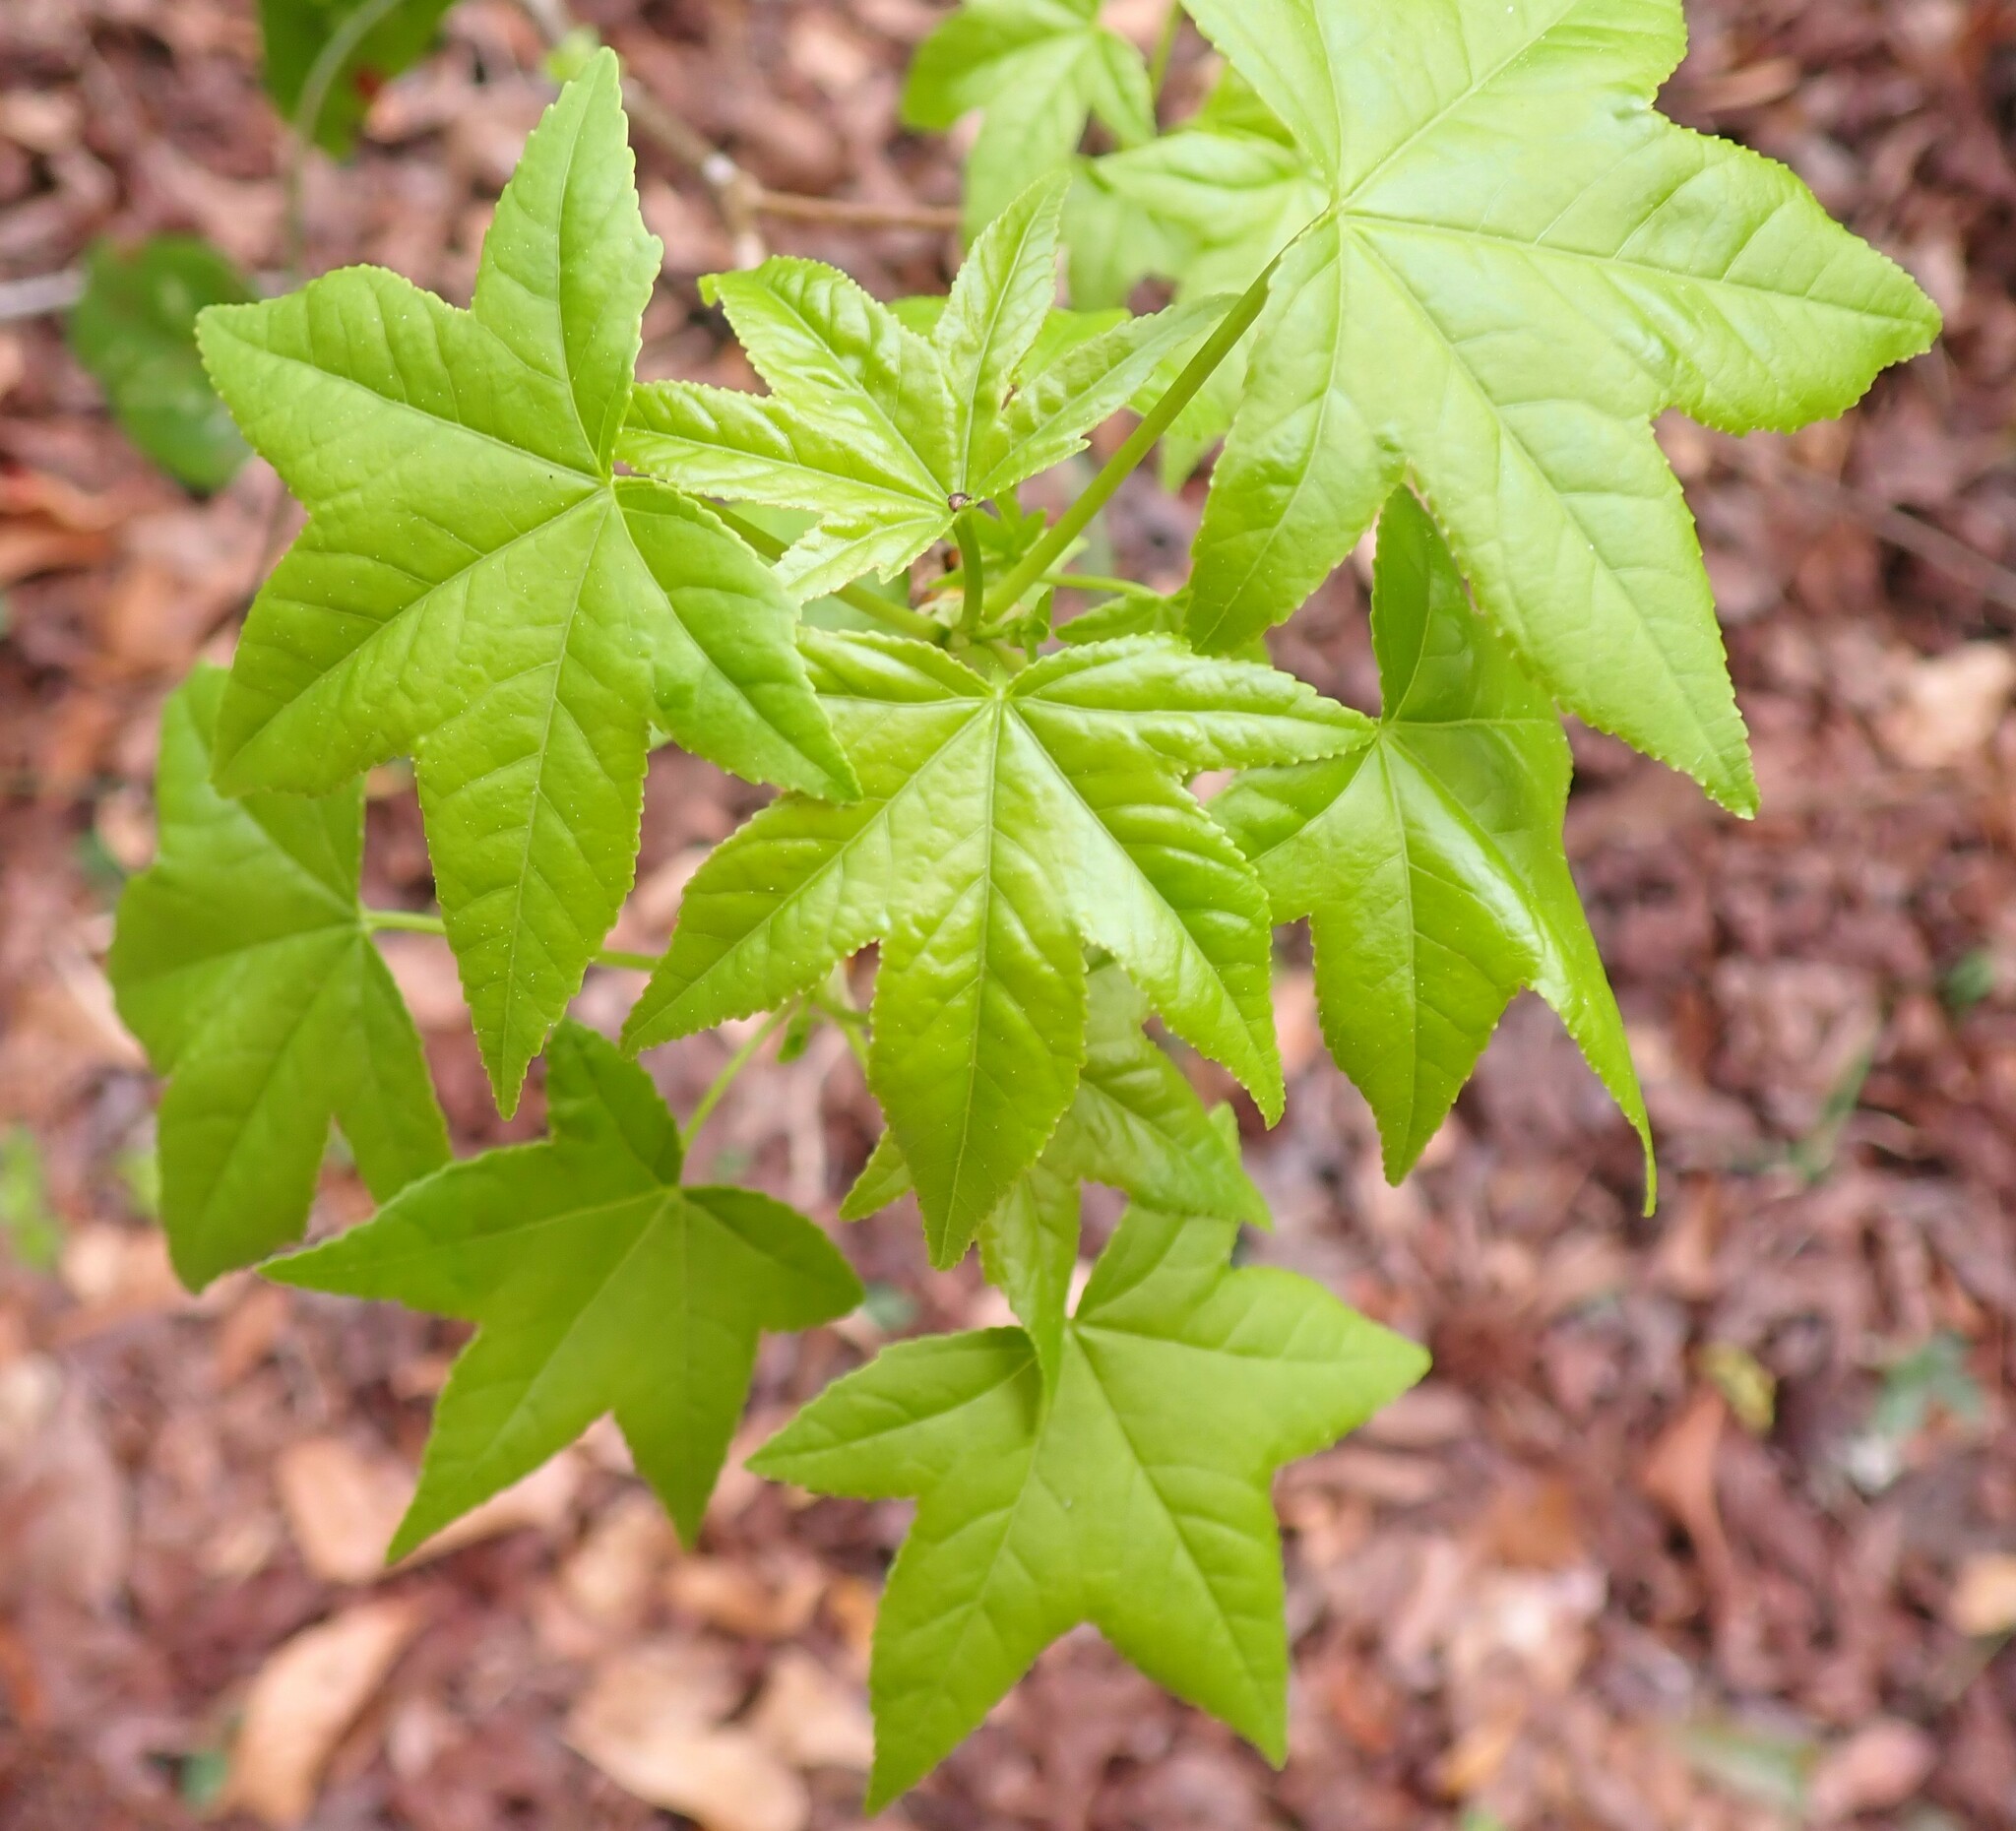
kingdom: Plantae
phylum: Tracheophyta
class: Magnoliopsida
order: Saxifragales
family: Altingiaceae
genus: Liquidambar
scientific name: Liquidambar styraciflua
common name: Sweet gum
